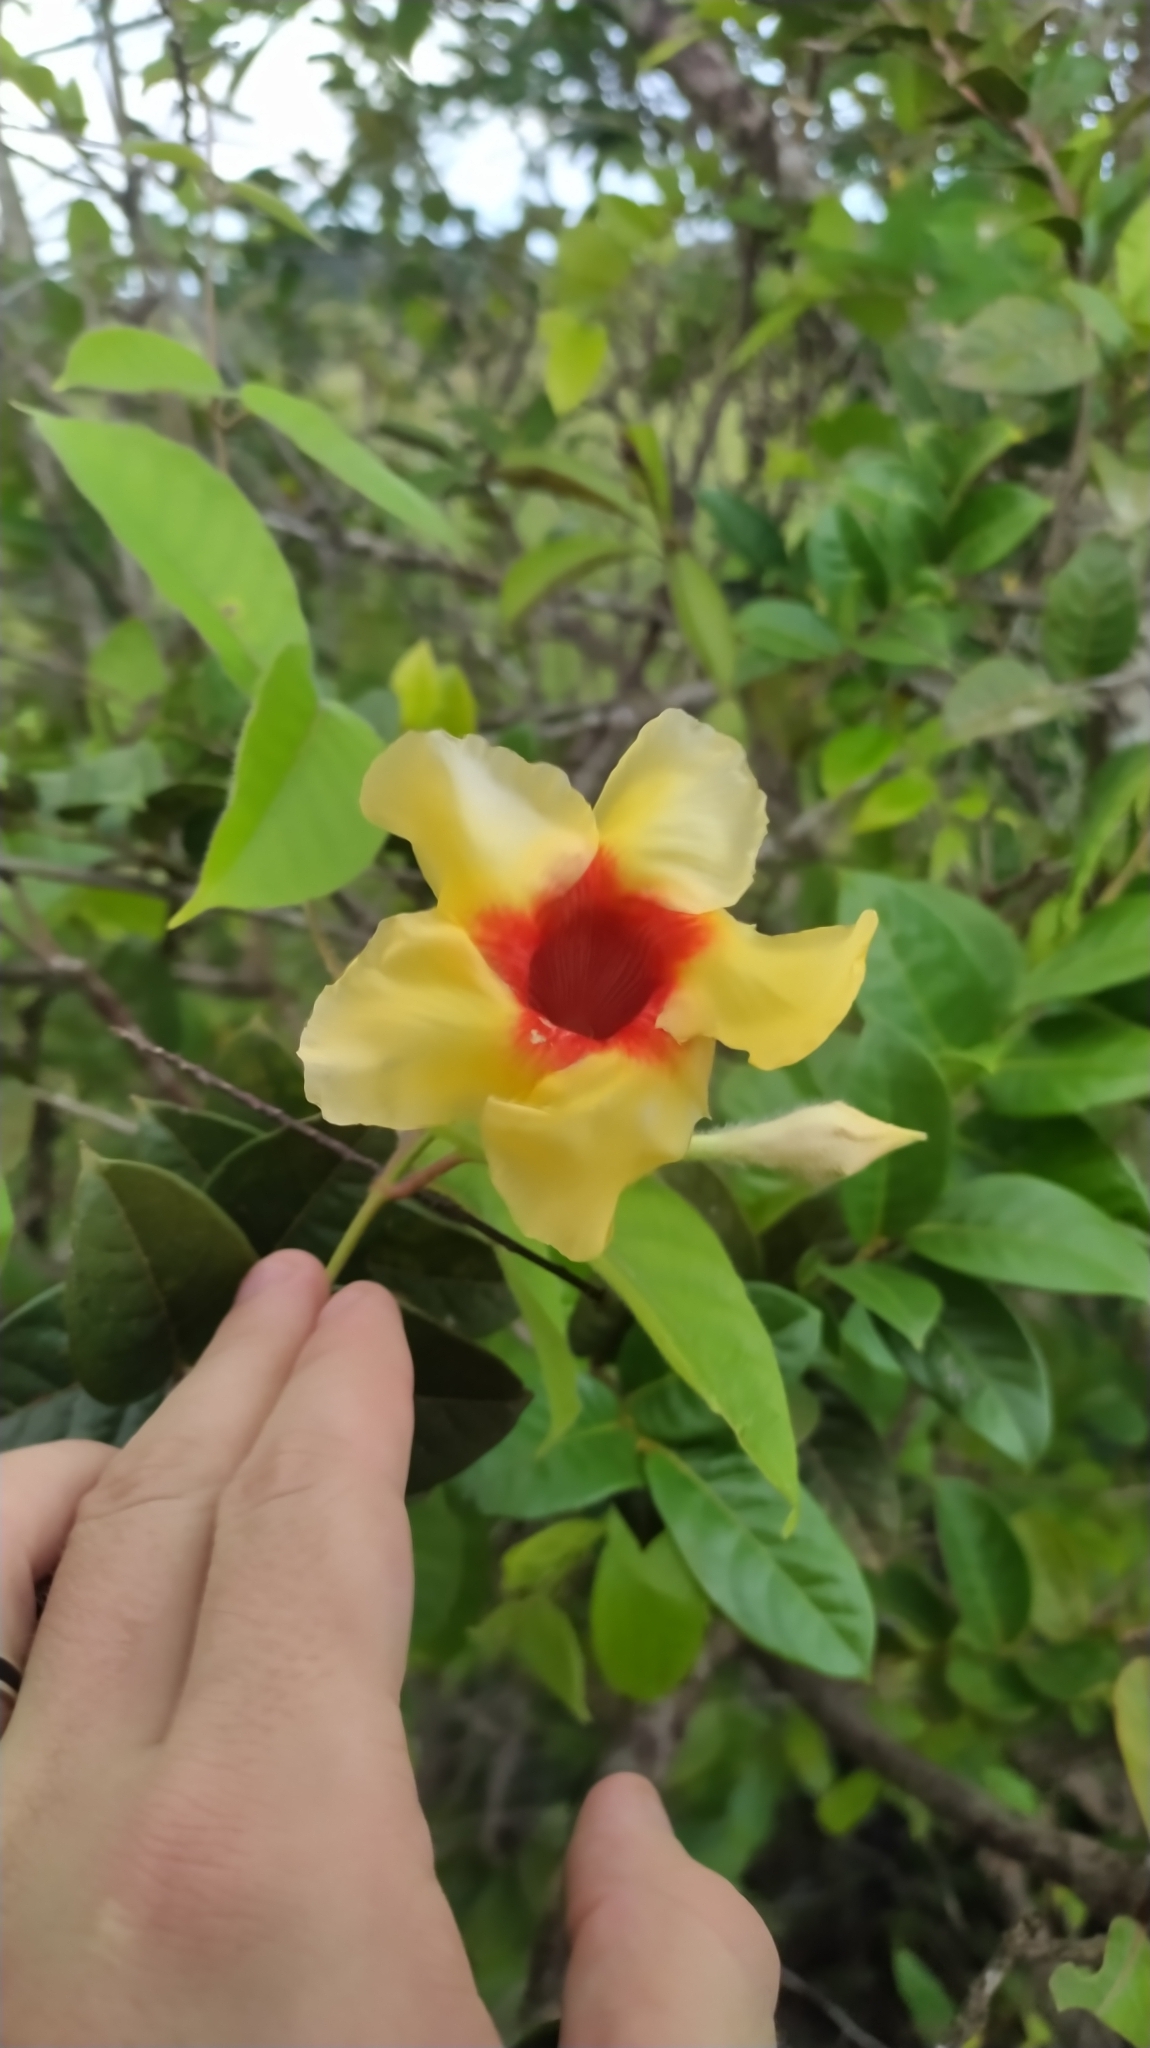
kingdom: Plantae
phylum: Tracheophyta
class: Magnoliopsida
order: Gentianales
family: Apocynaceae
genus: Mandevilla
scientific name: Mandevilla hirsuta
